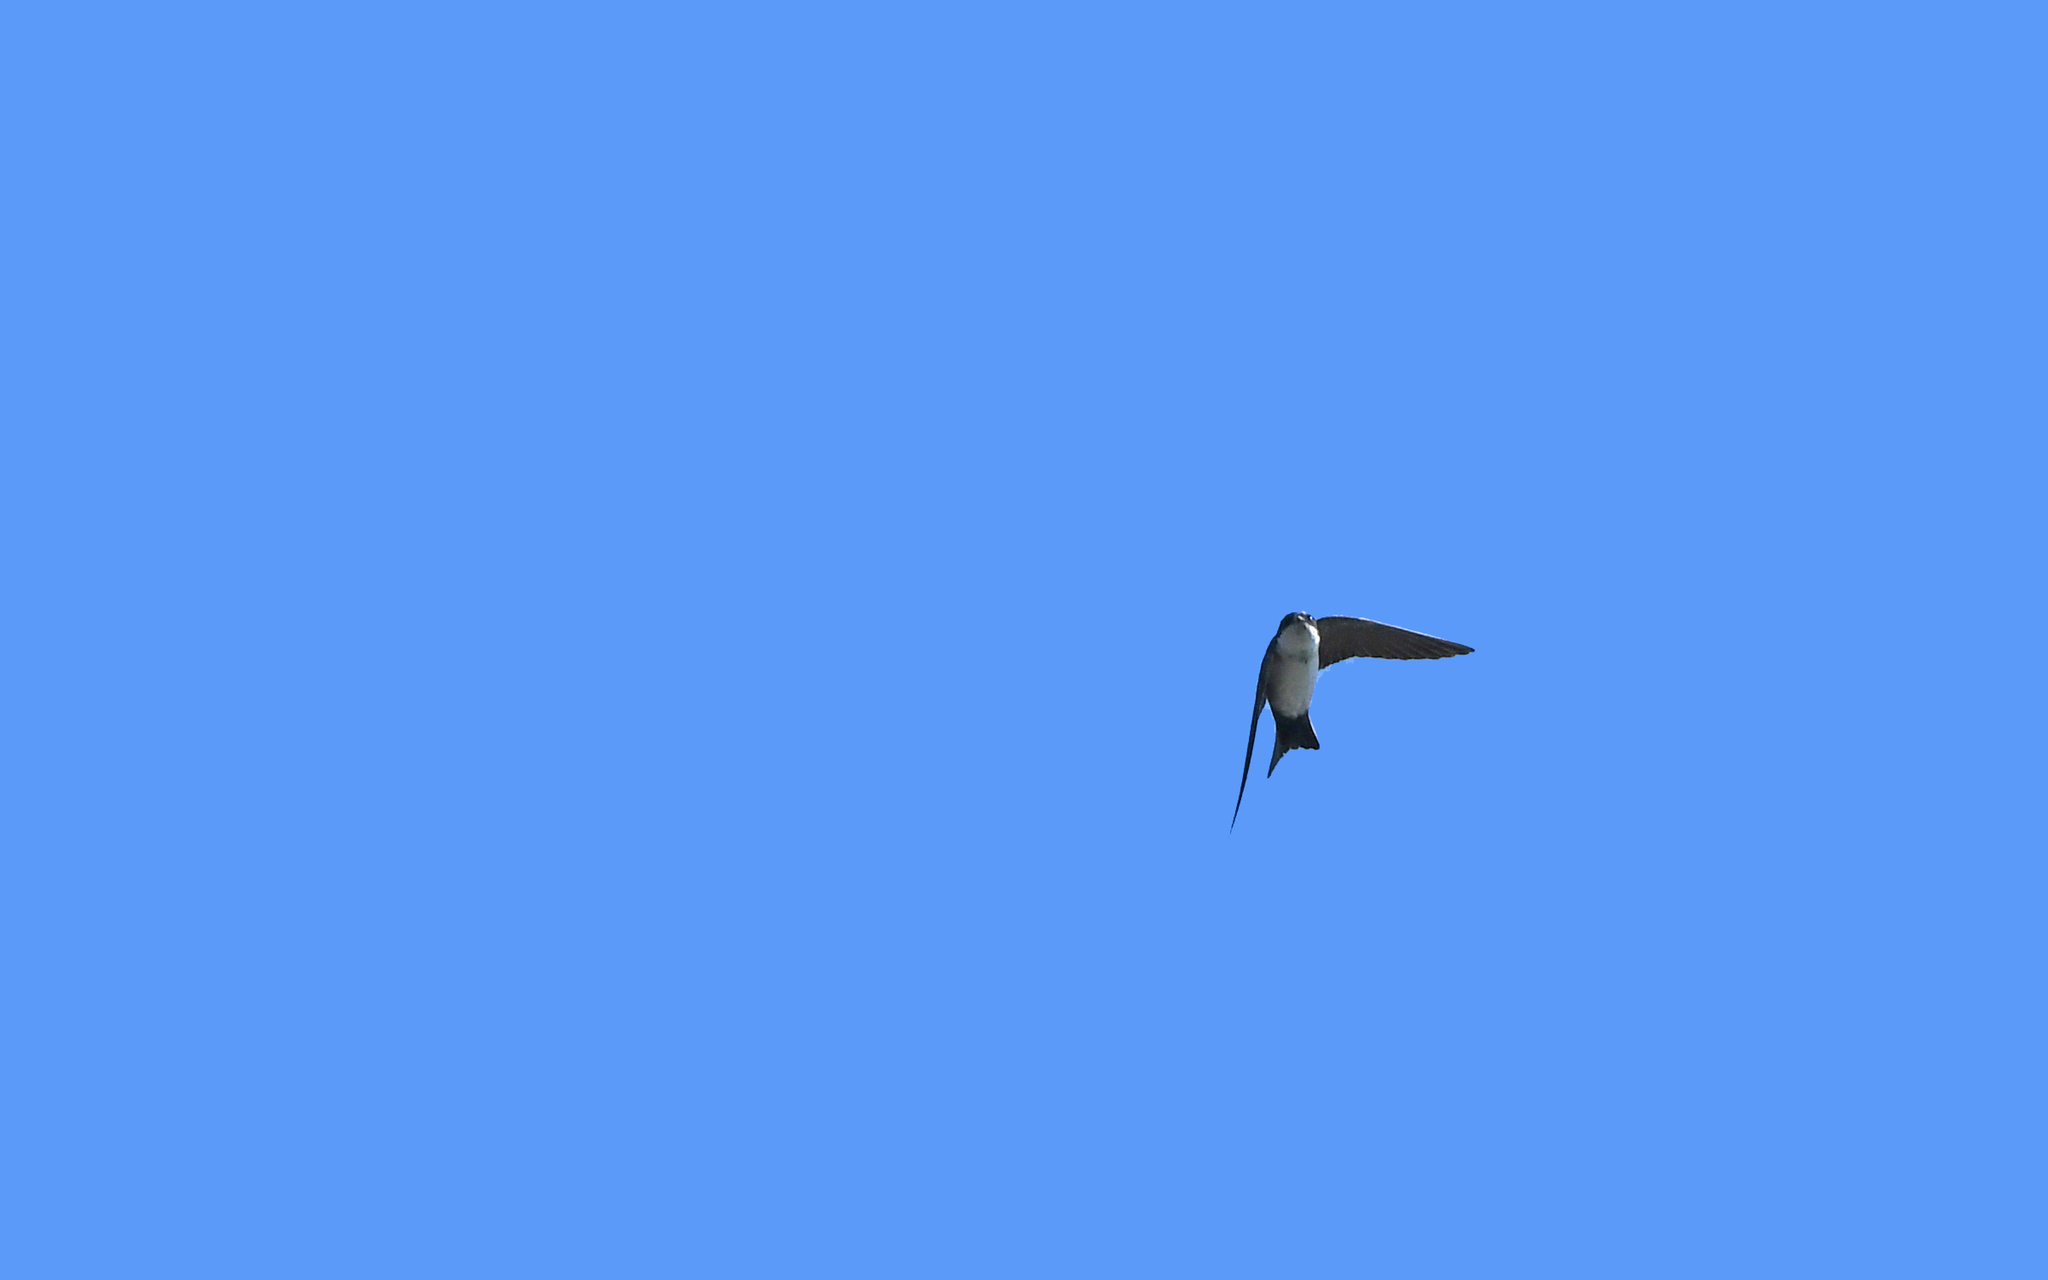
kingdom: Animalia
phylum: Chordata
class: Aves
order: Passeriformes
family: Hirundinidae
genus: Notiochelidon
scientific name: Notiochelidon cyanoleuca
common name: Blue-and-white swallow
